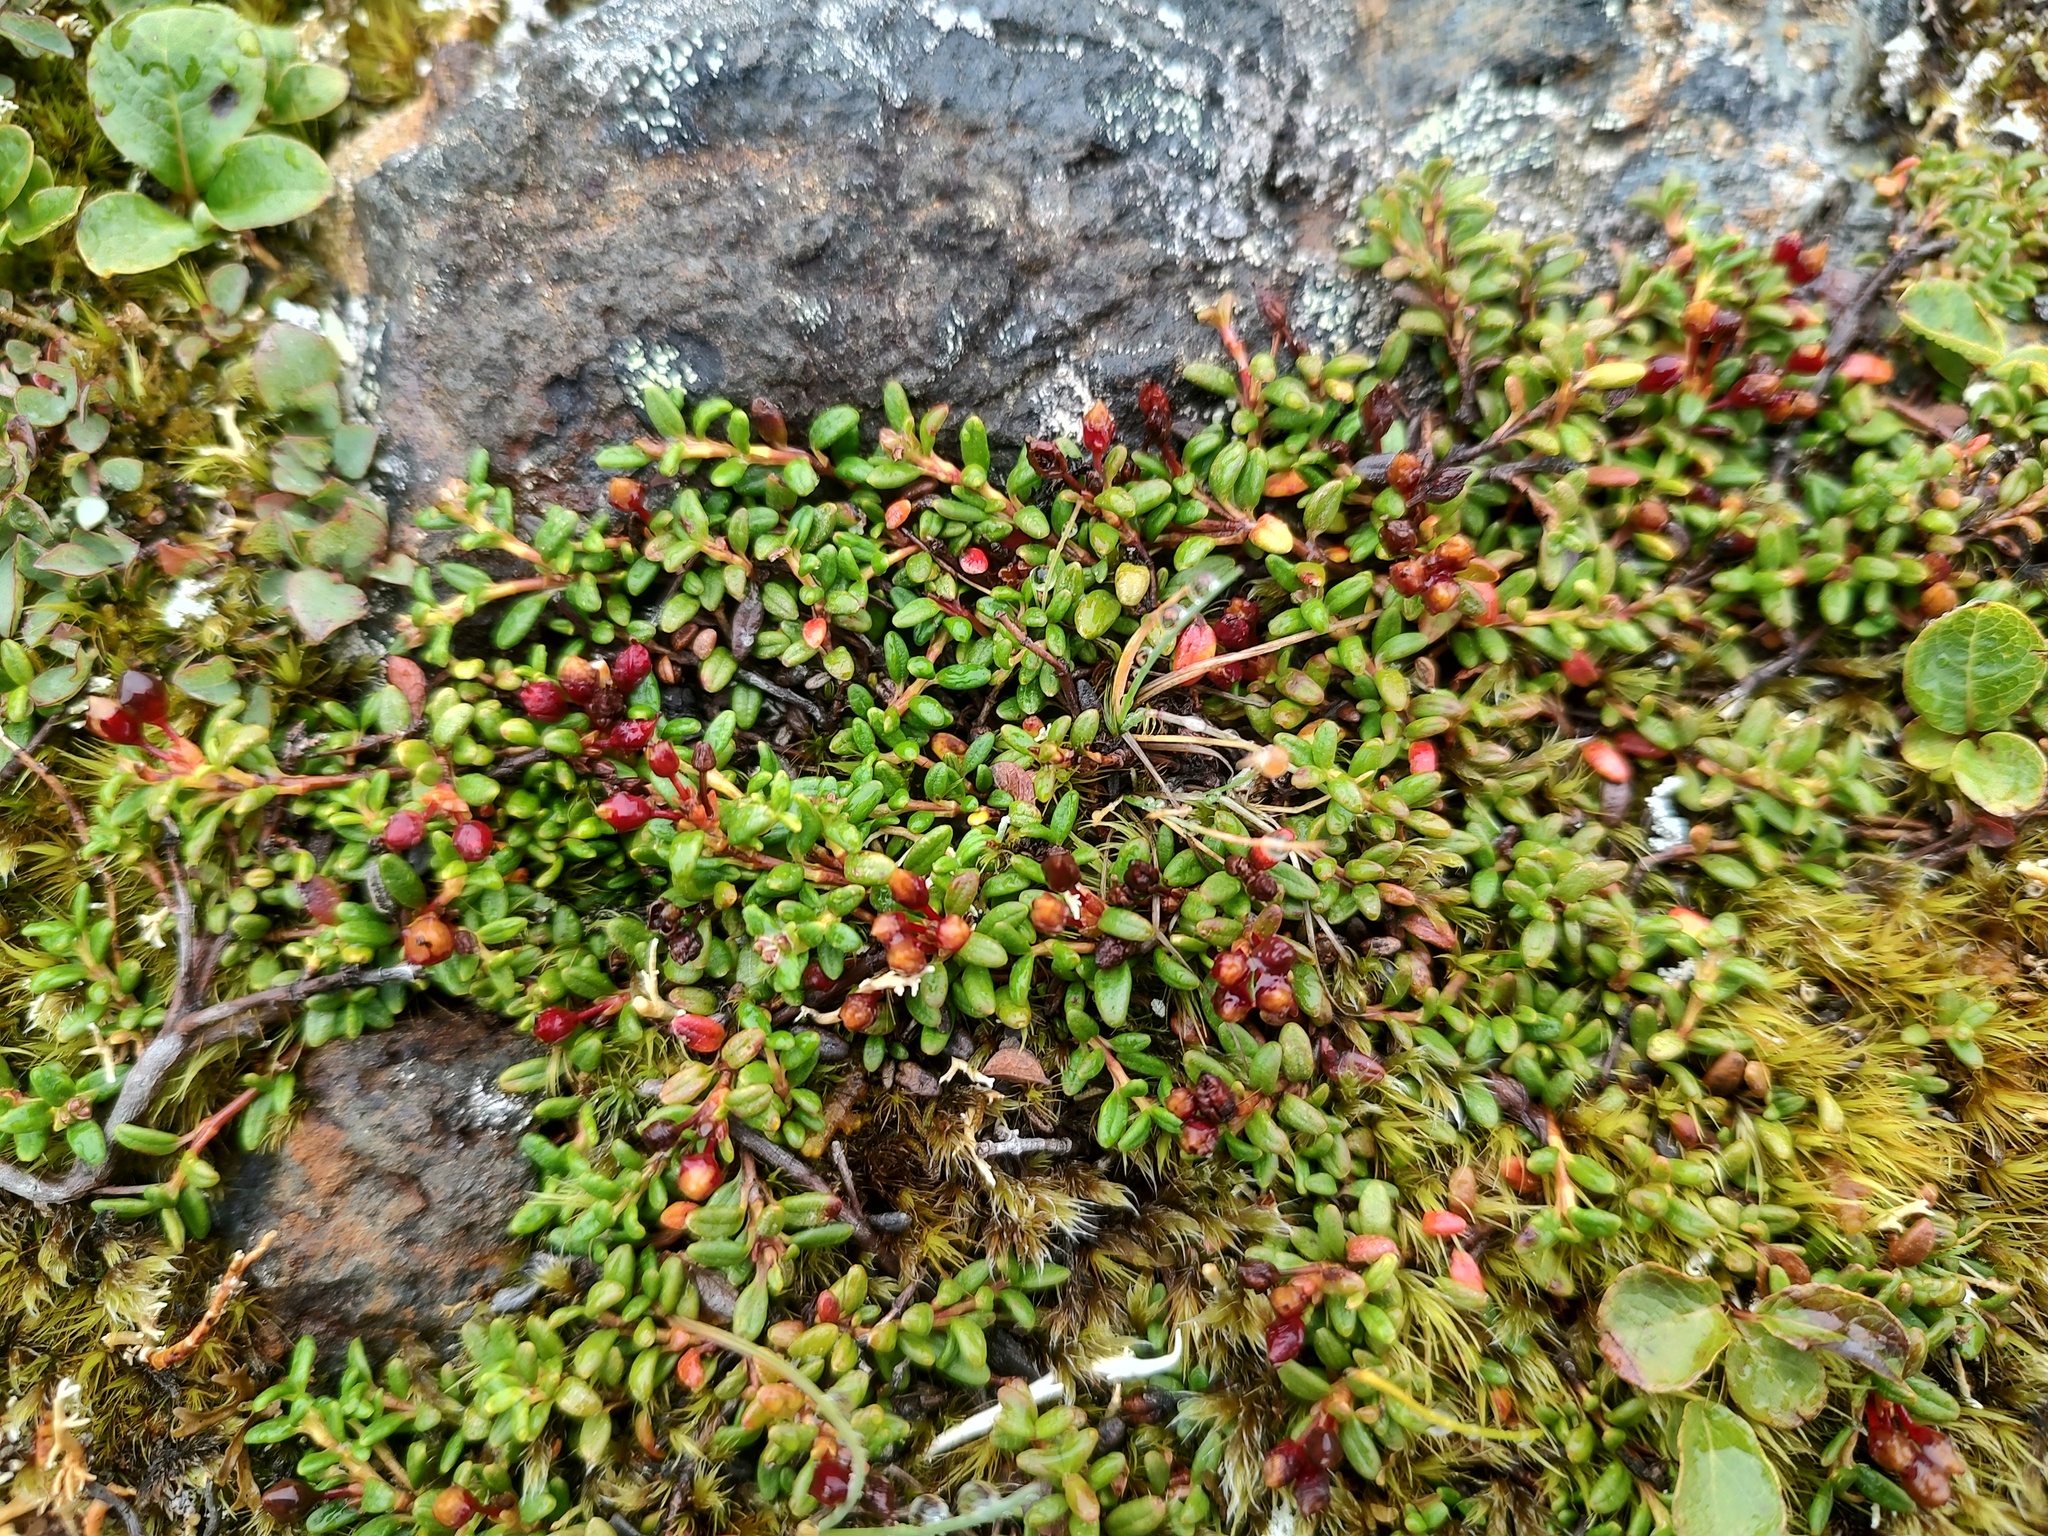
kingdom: Plantae
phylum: Tracheophyta
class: Magnoliopsida
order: Ericales
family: Ericaceae
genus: Kalmia
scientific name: Kalmia procumbens
